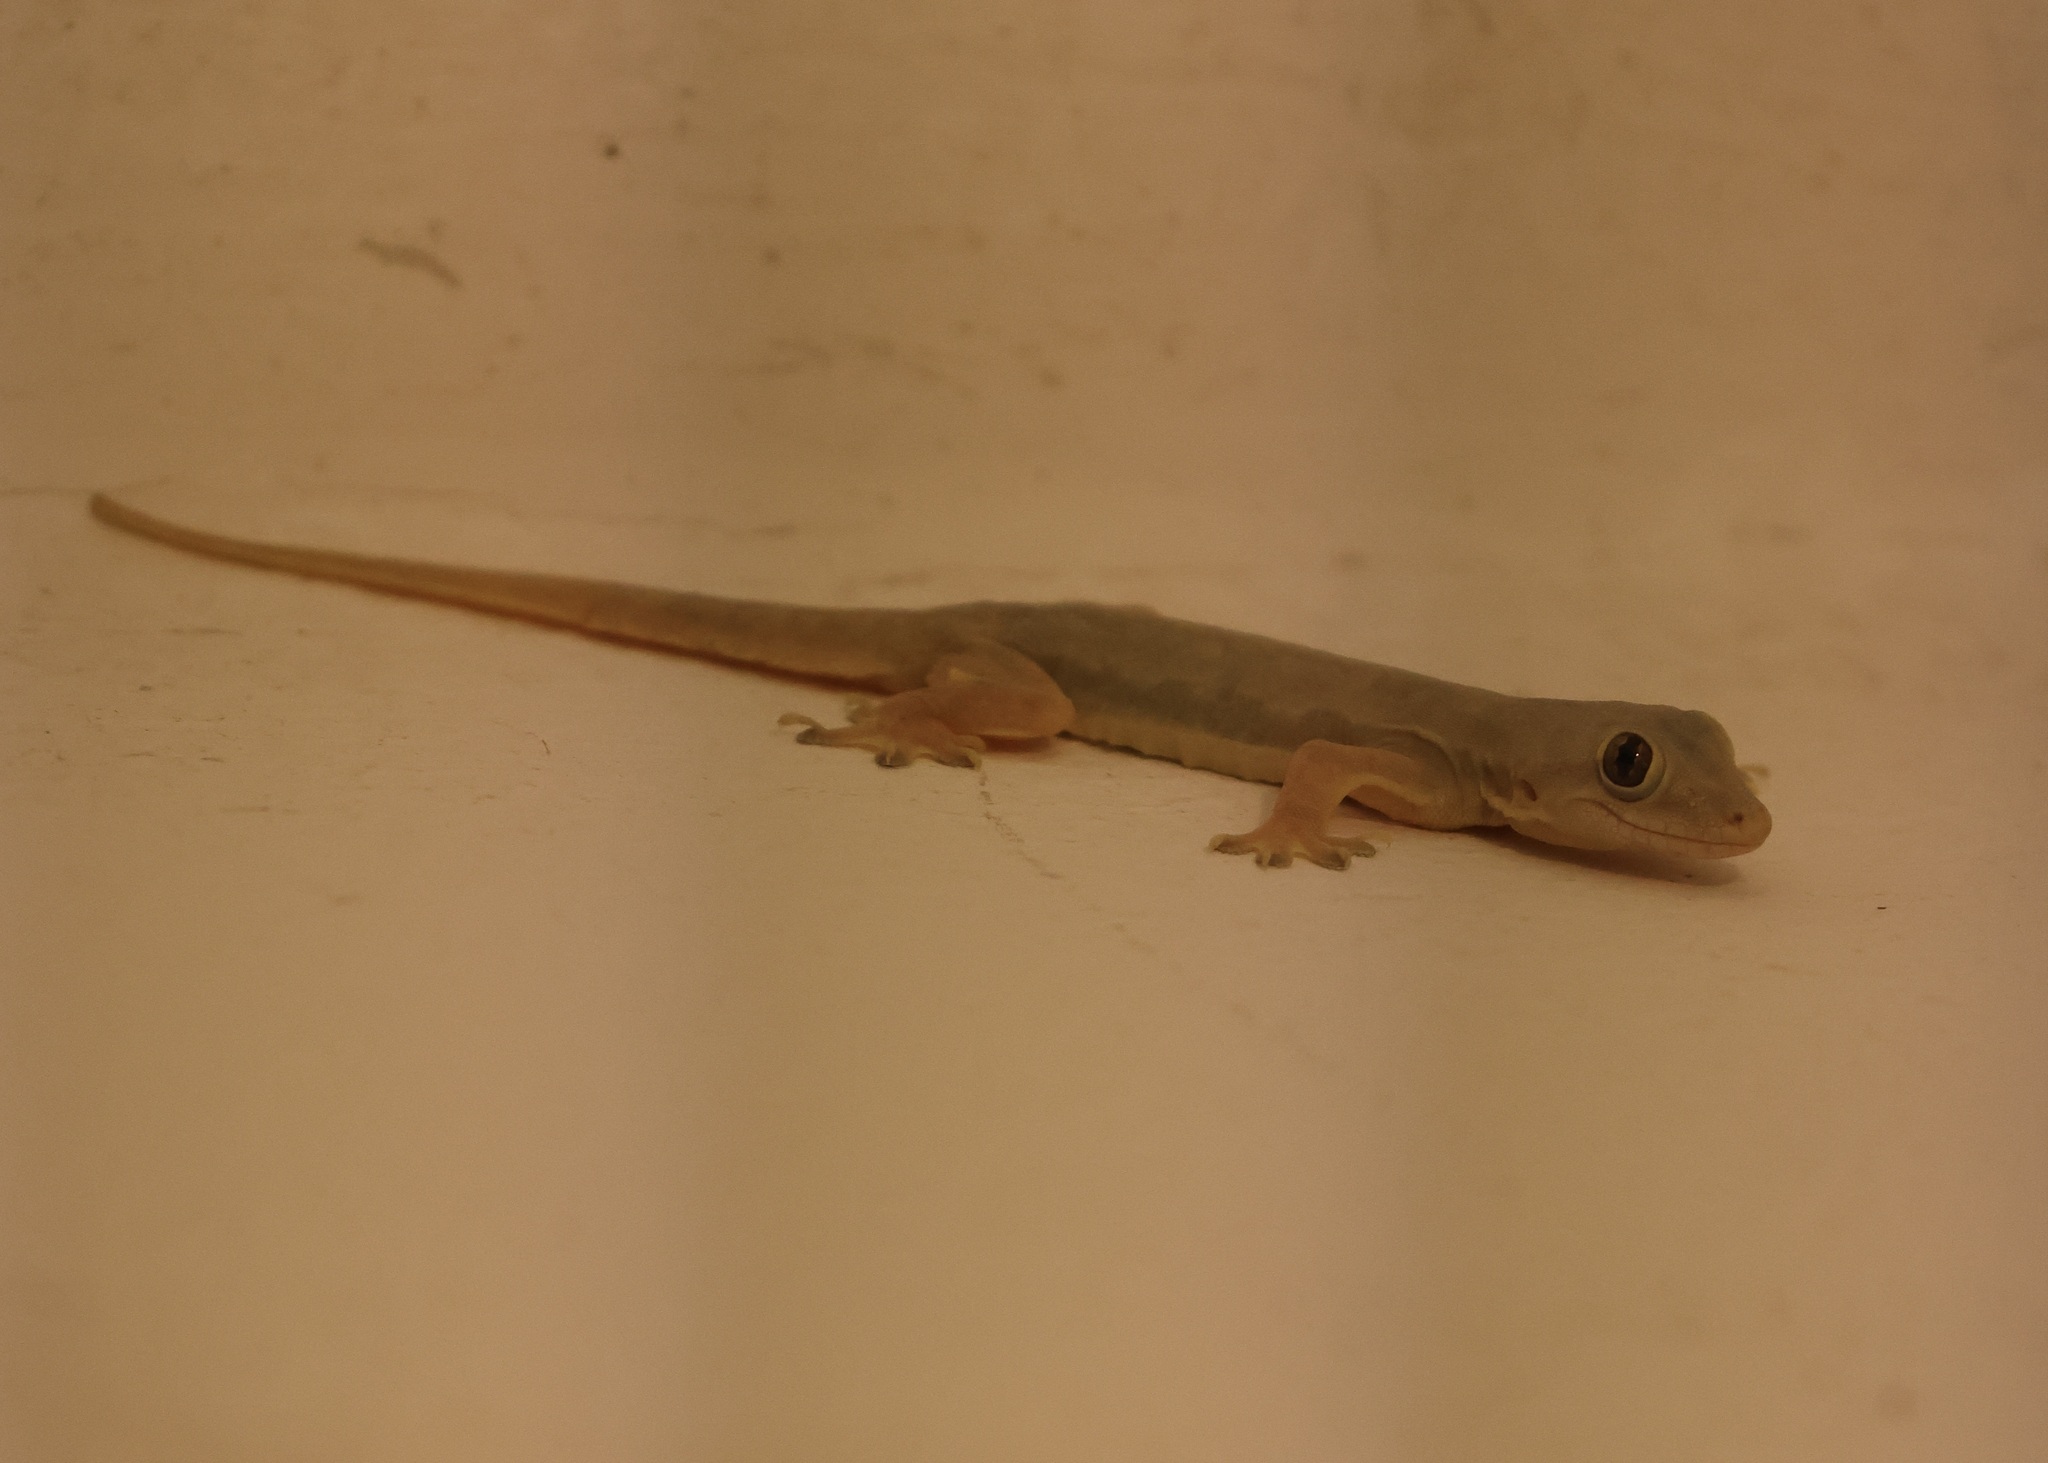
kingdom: Animalia
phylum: Chordata
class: Squamata
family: Gekkonidae
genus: Hemidactylus
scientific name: Hemidactylus platyurus
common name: Flat-tailed house gecko
